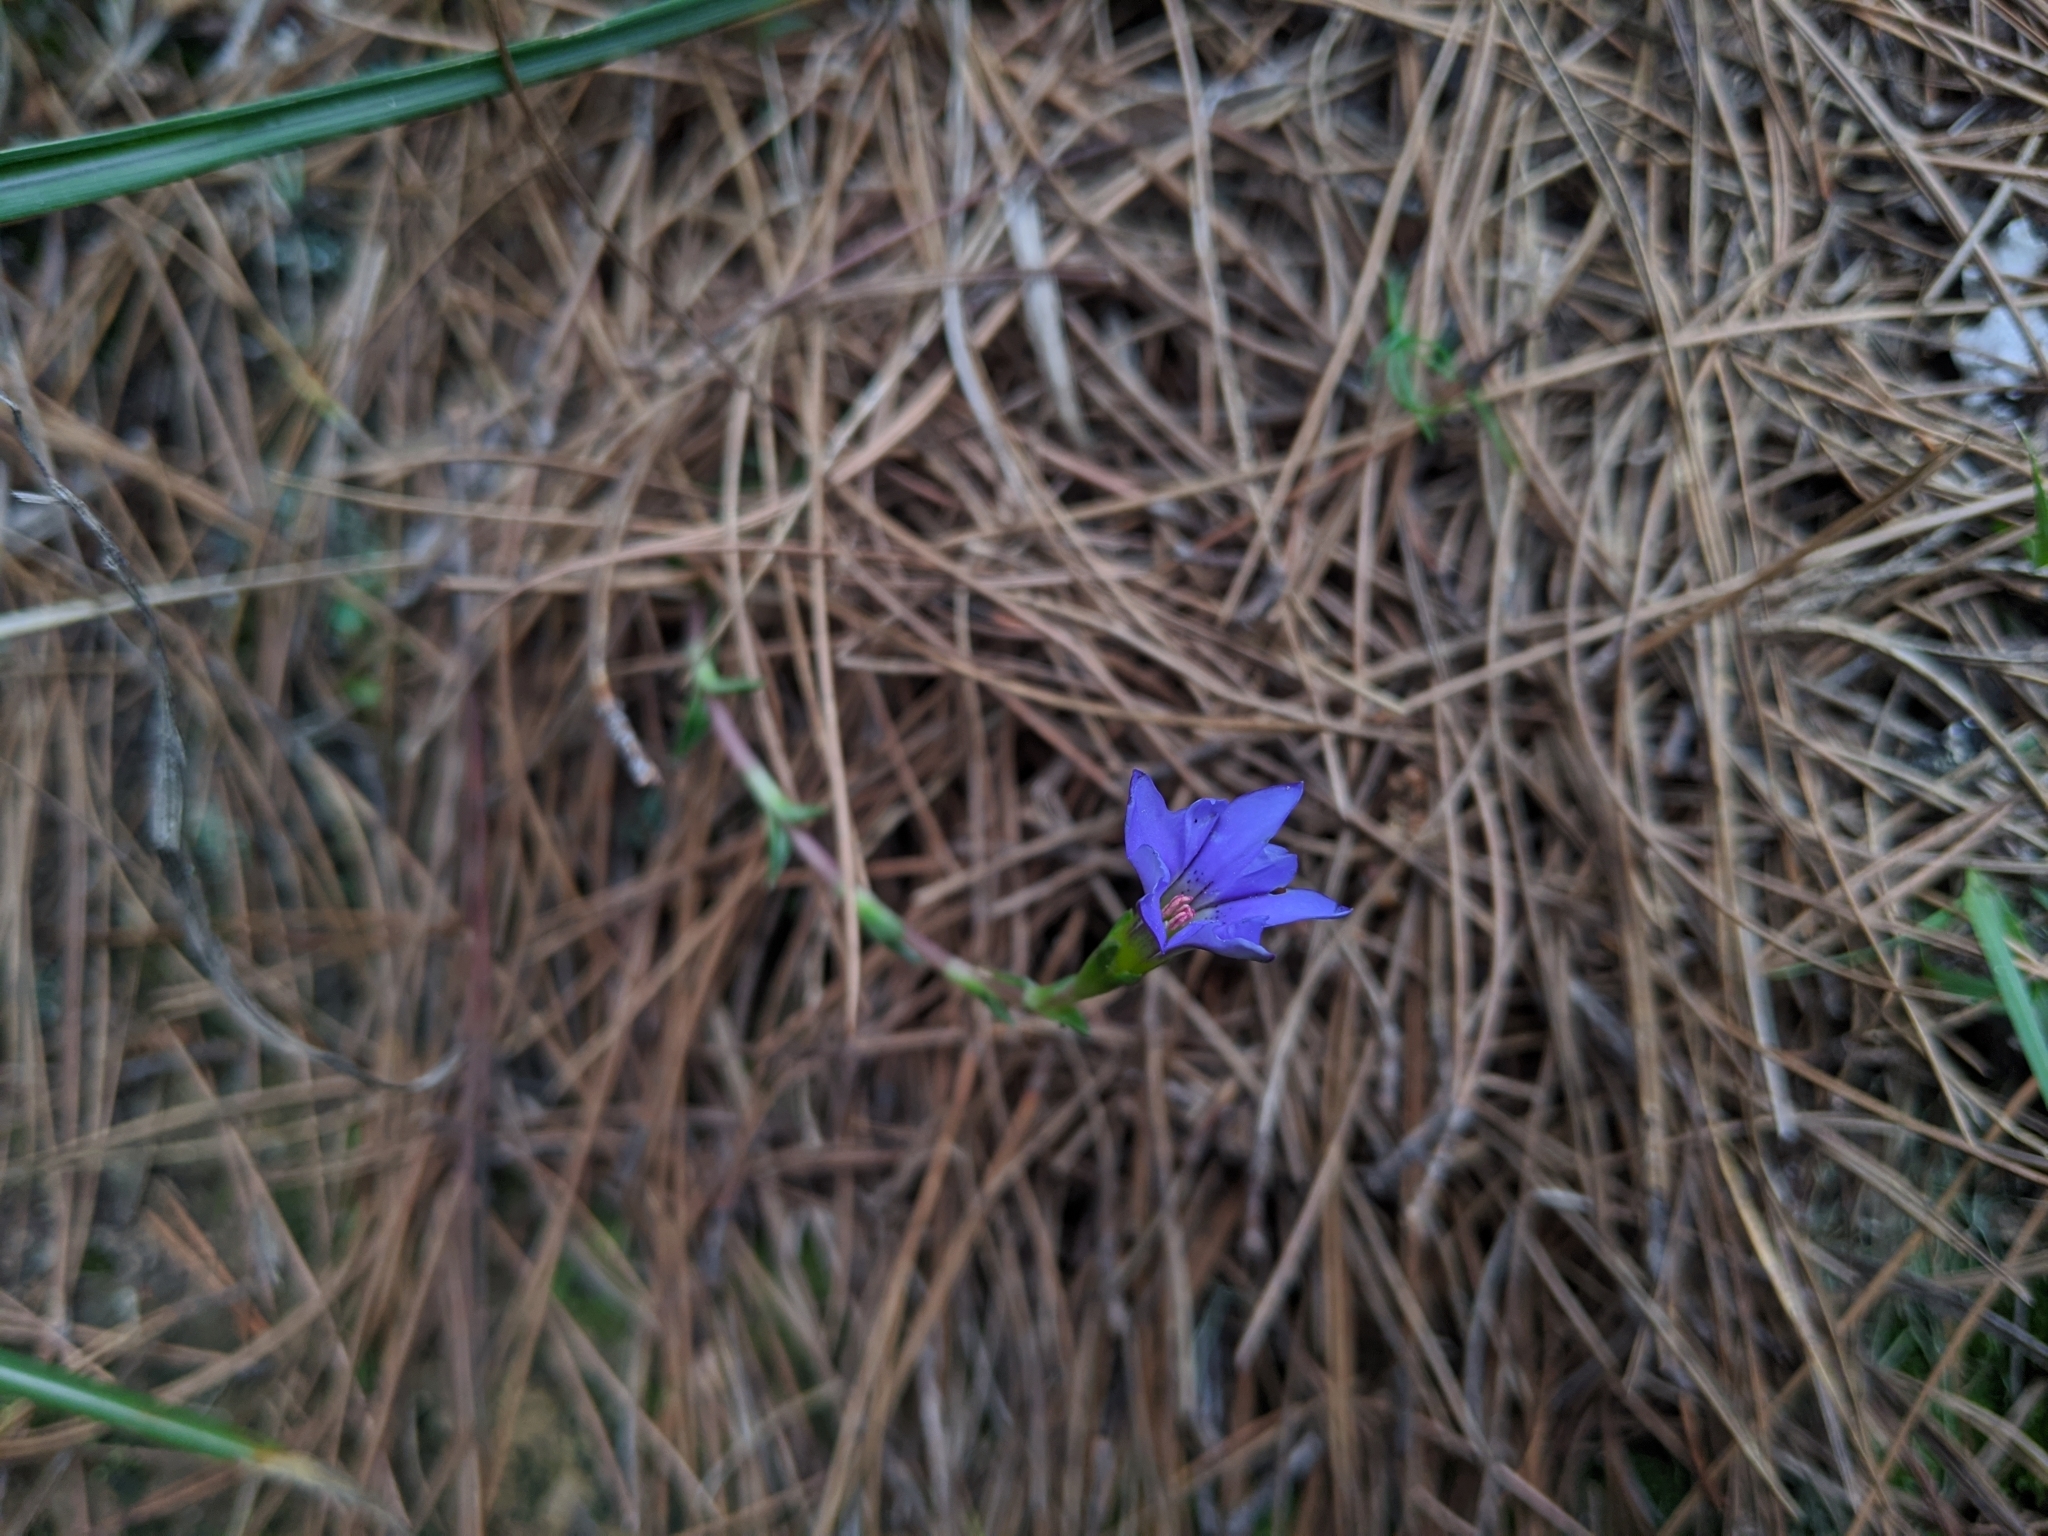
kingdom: Plantae
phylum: Tracheophyta
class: Magnoliopsida
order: Gentianales
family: Gentianaceae
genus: Gentiana
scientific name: Gentiana arisanensis
